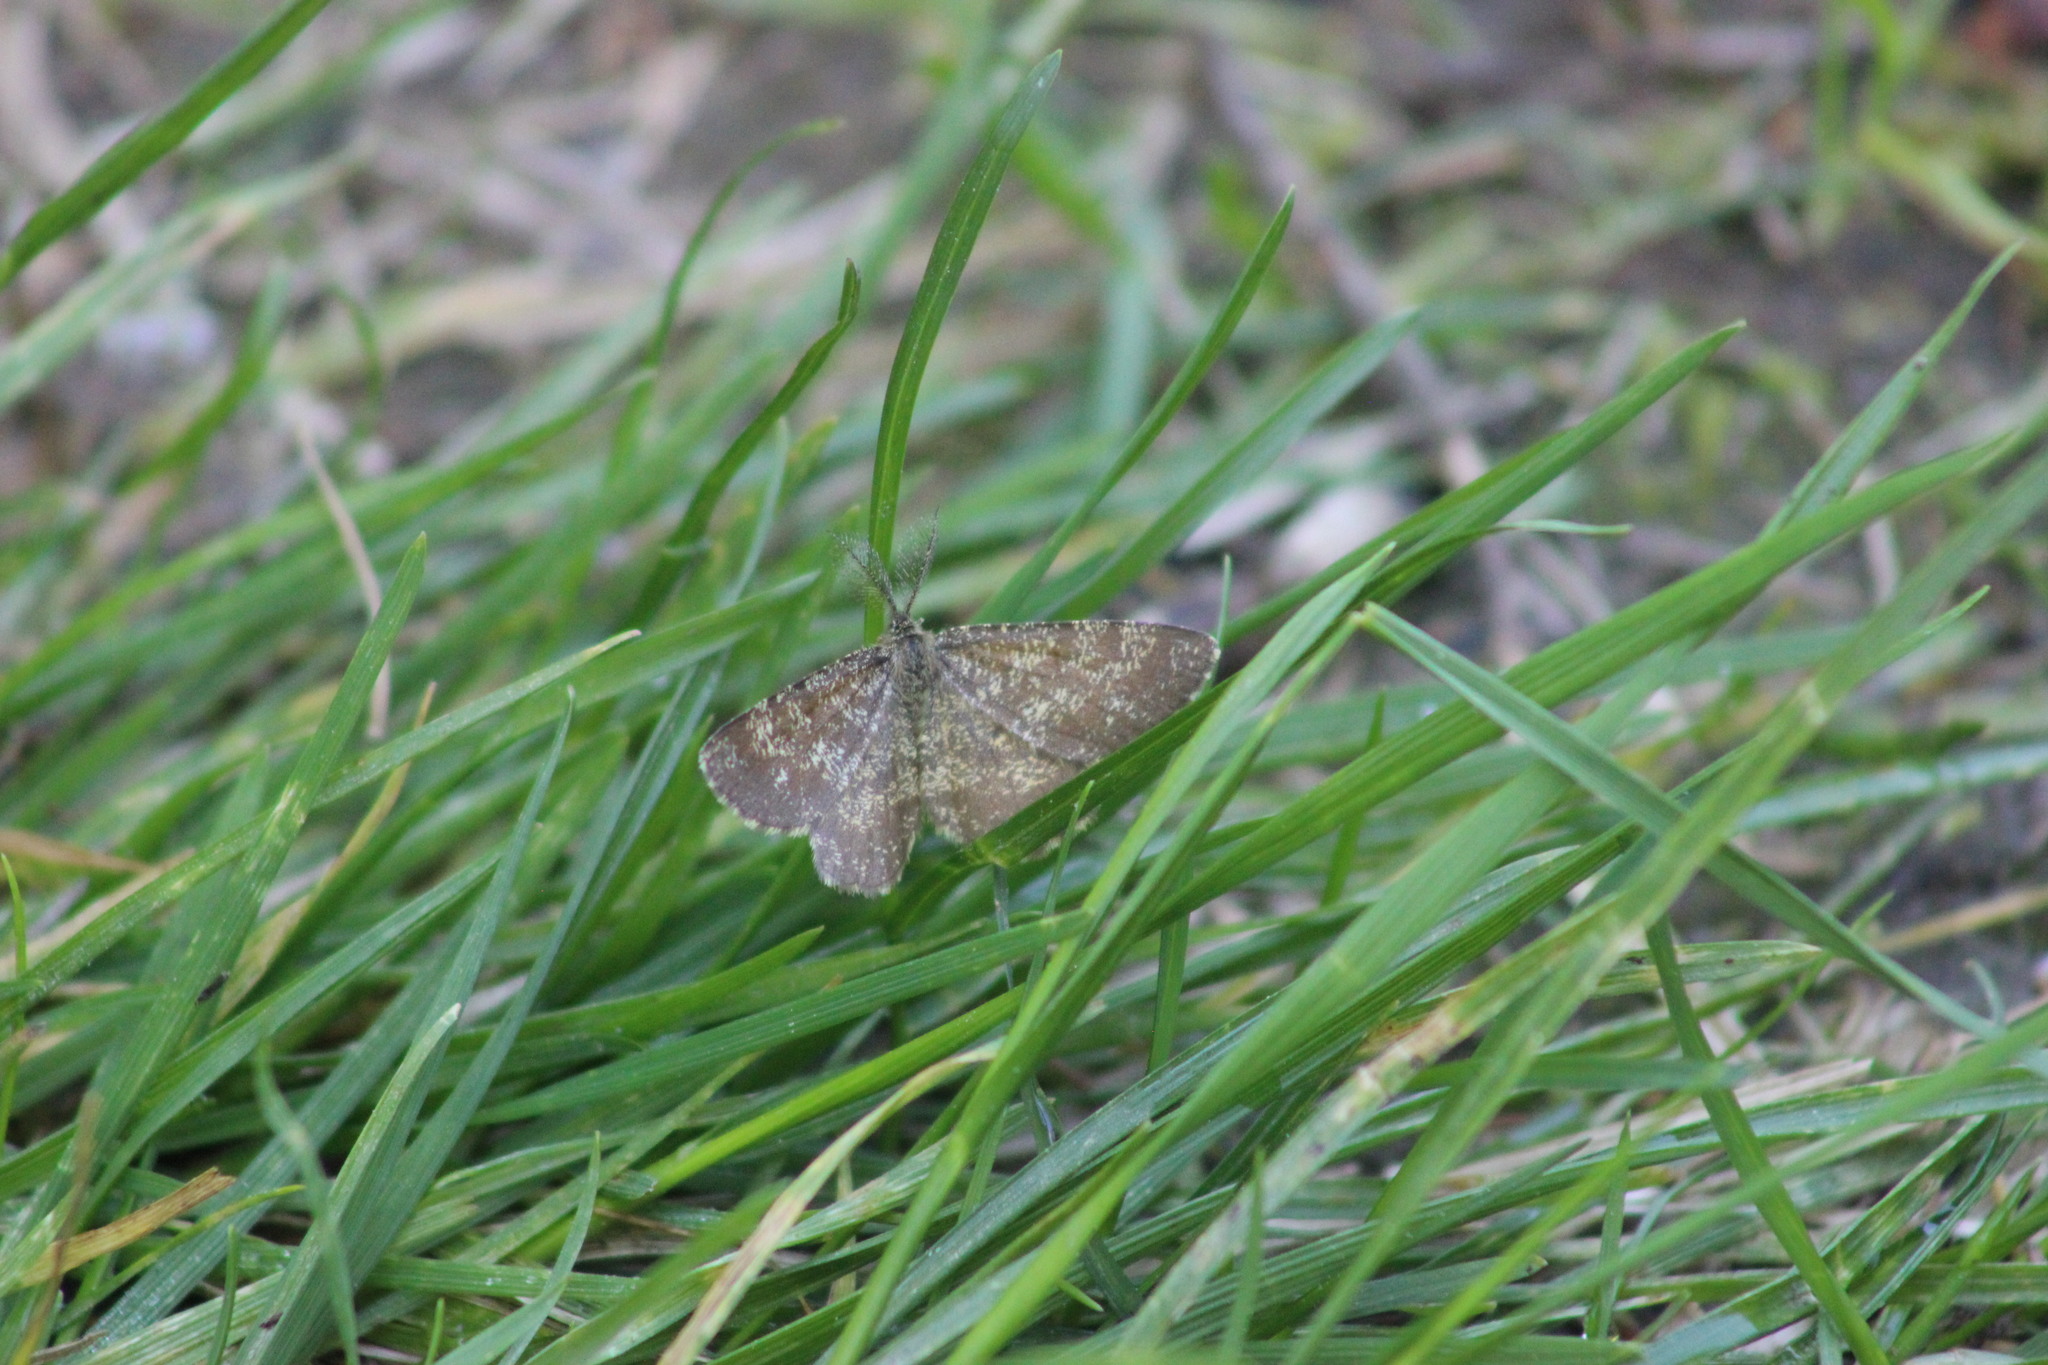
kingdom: Animalia
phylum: Arthropoda
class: Insecta
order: Lepidoptera
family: Geometridae
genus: Ematurga
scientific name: Ematurga atomaria
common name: Common heath
